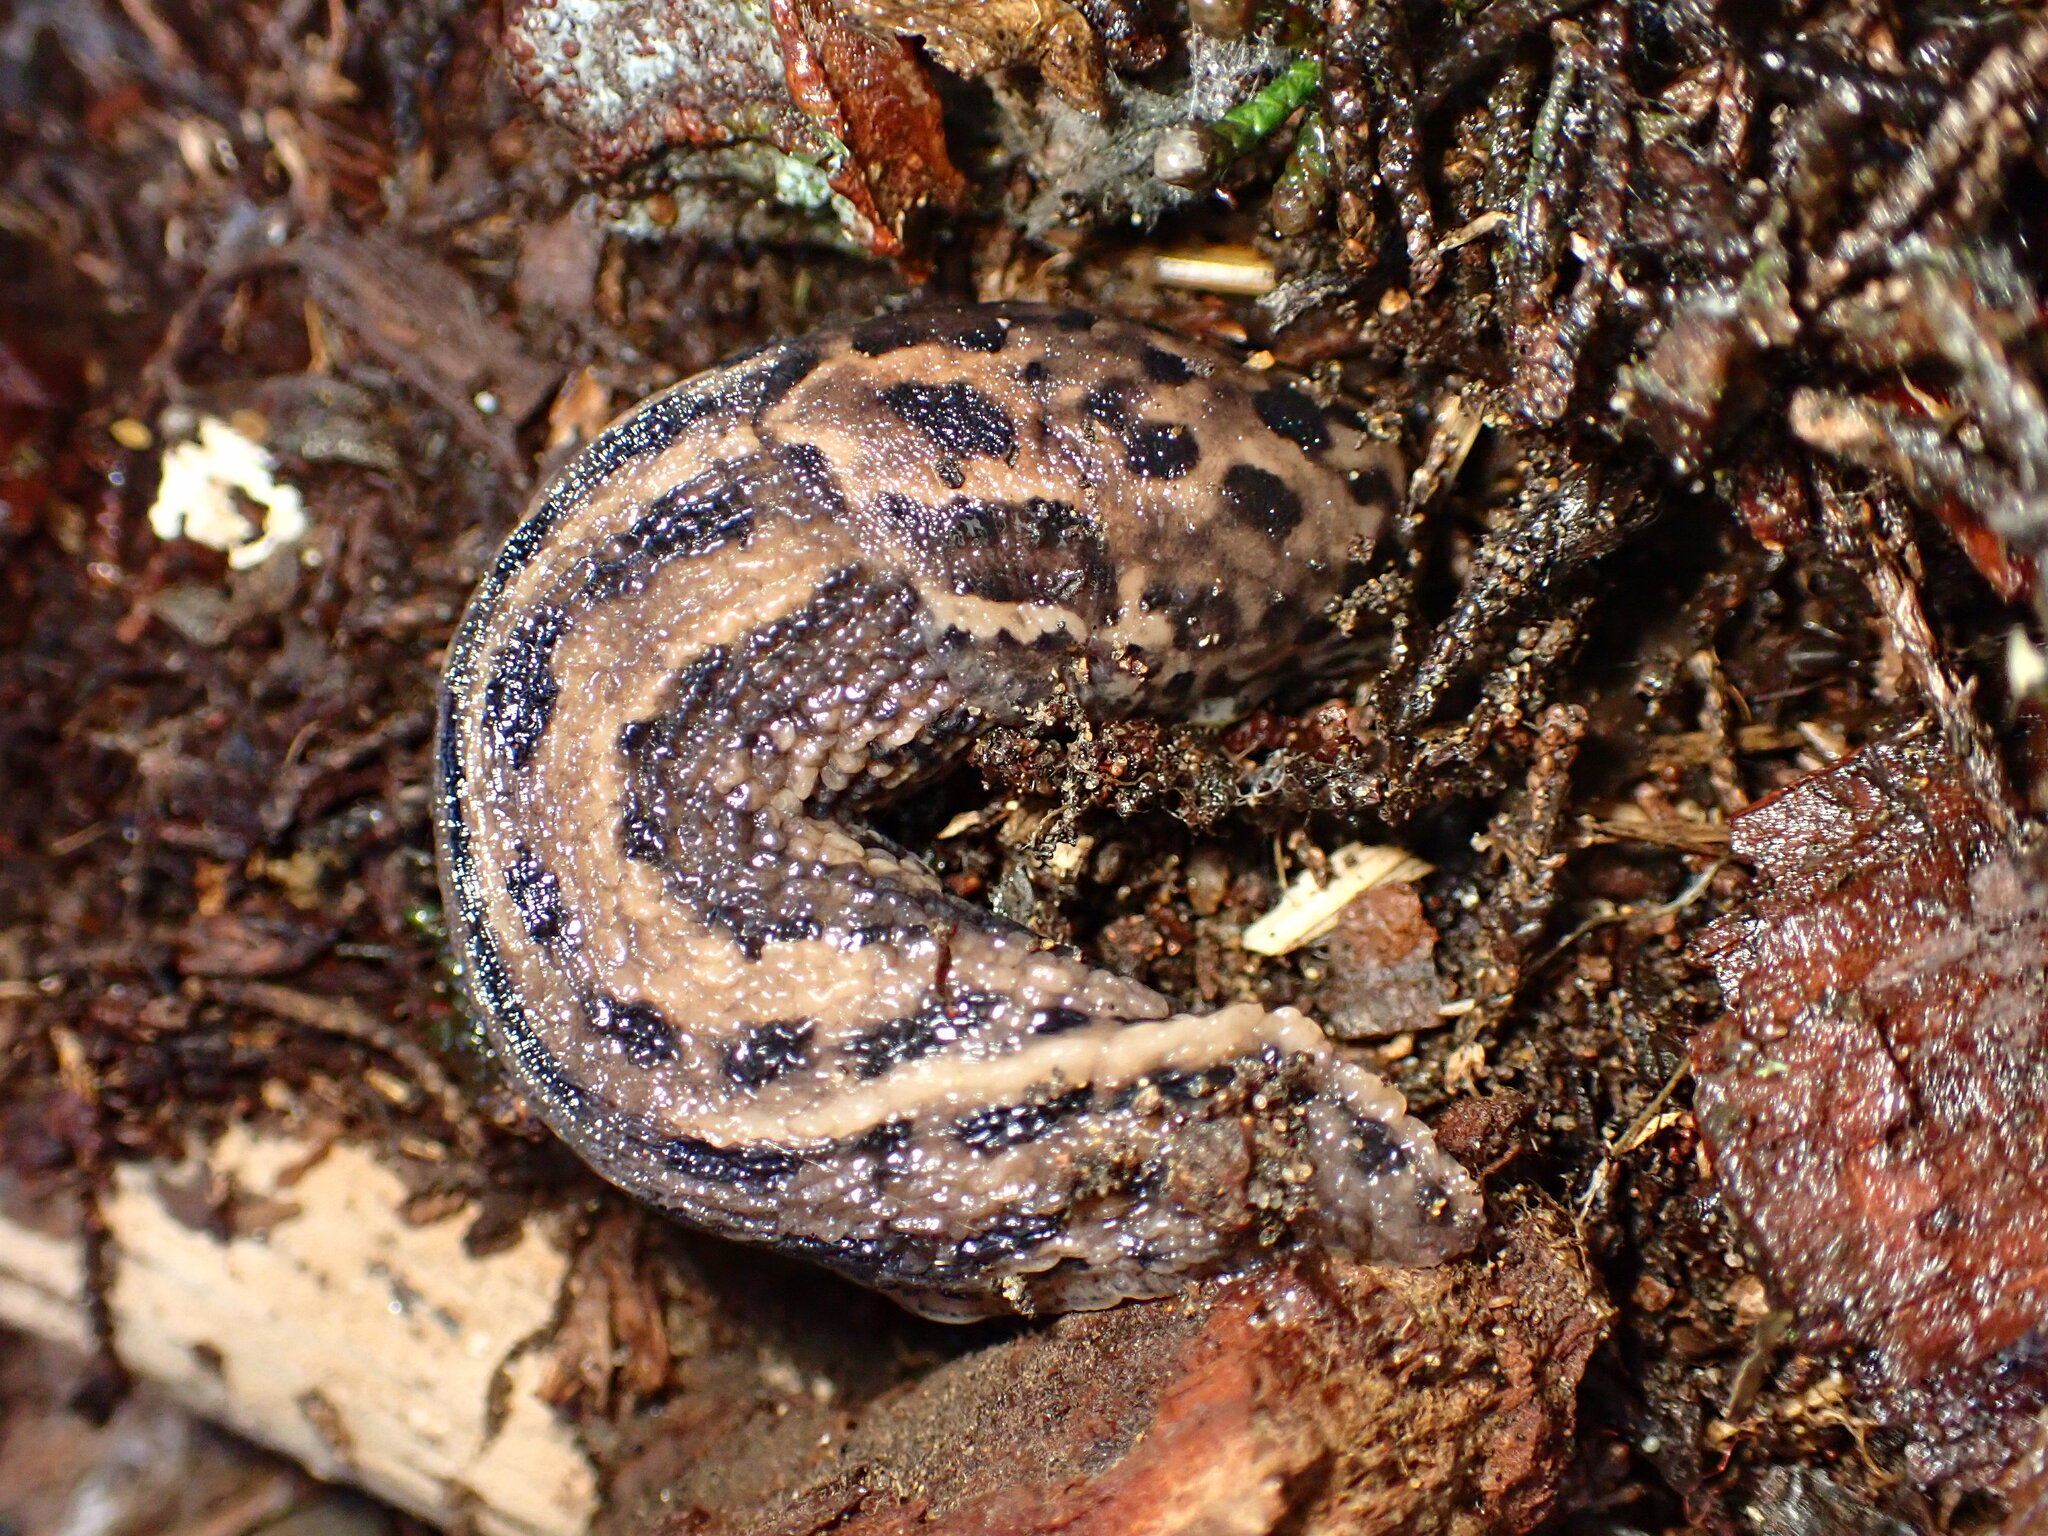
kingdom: Animalia
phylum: Mollusca
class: Gastropoda
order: Stylommatophora
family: Limacidae
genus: Limax
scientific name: Limax maximus
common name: Great grey slug
